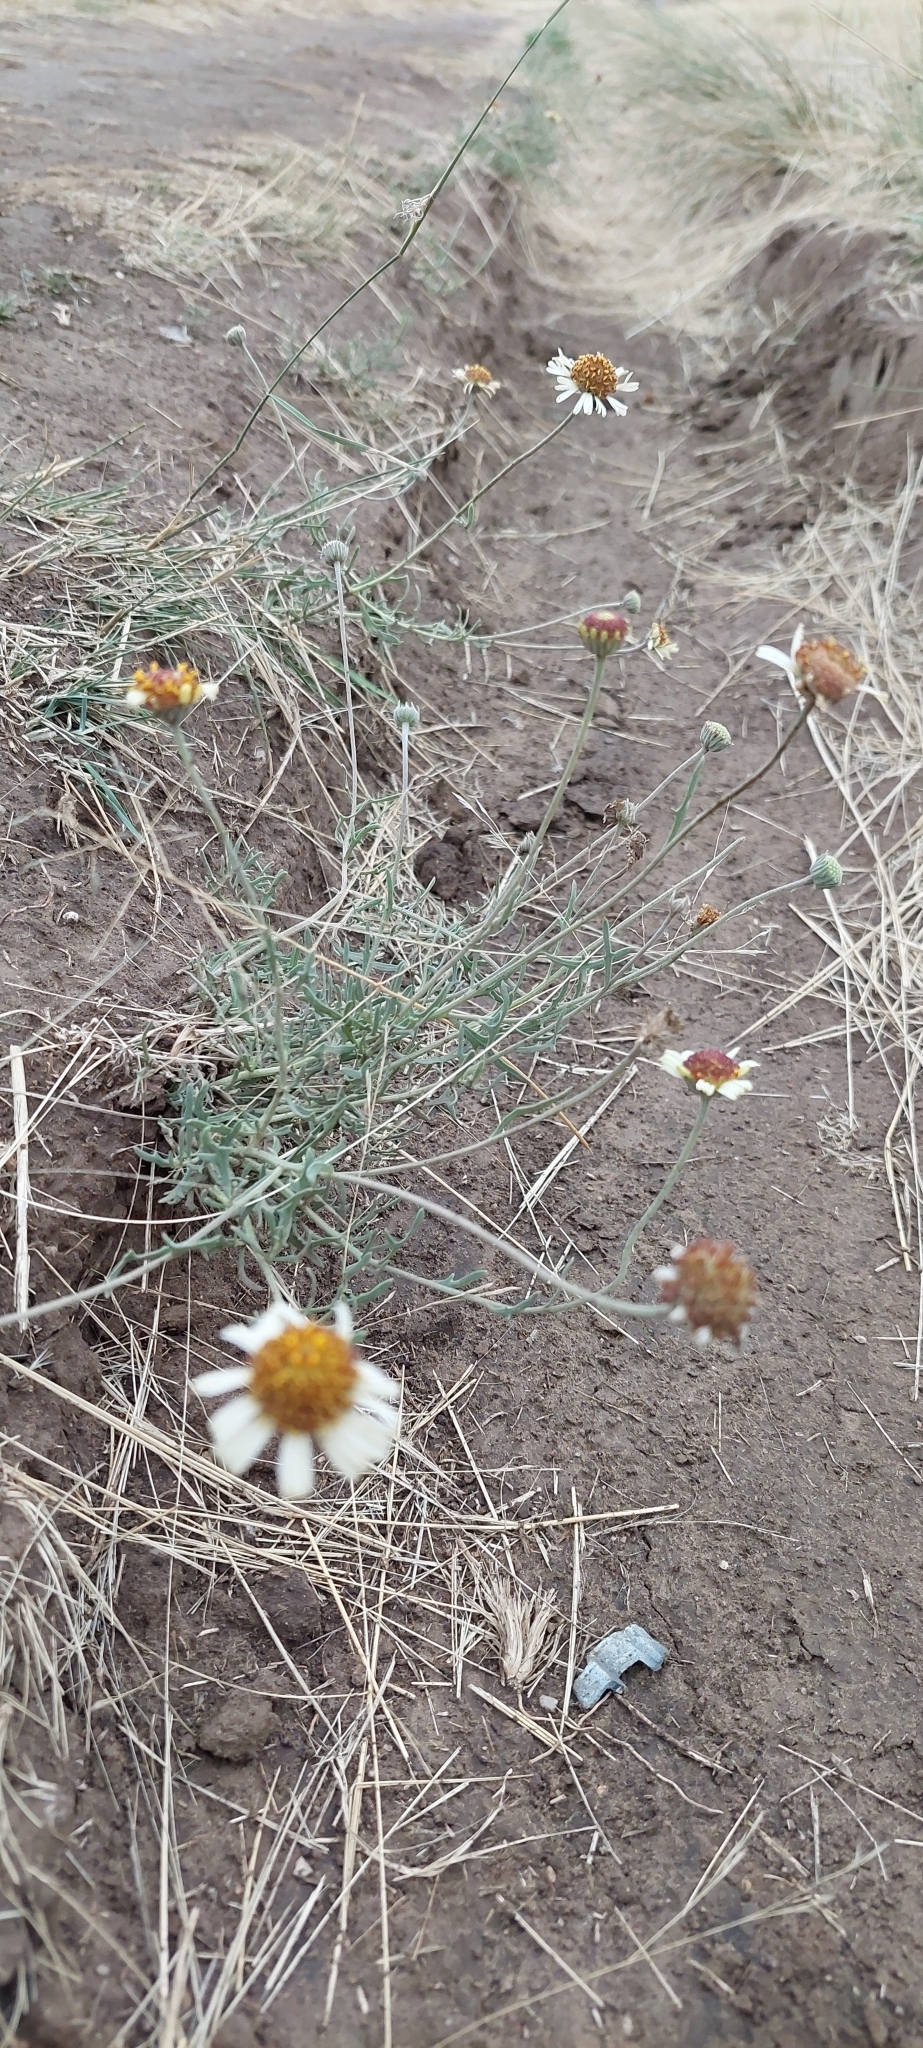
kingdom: Plantae
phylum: Tracheophyta
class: Magnoliopsida
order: Asterales
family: Asteraceae
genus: Helenium
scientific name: Helenium uniflorum
